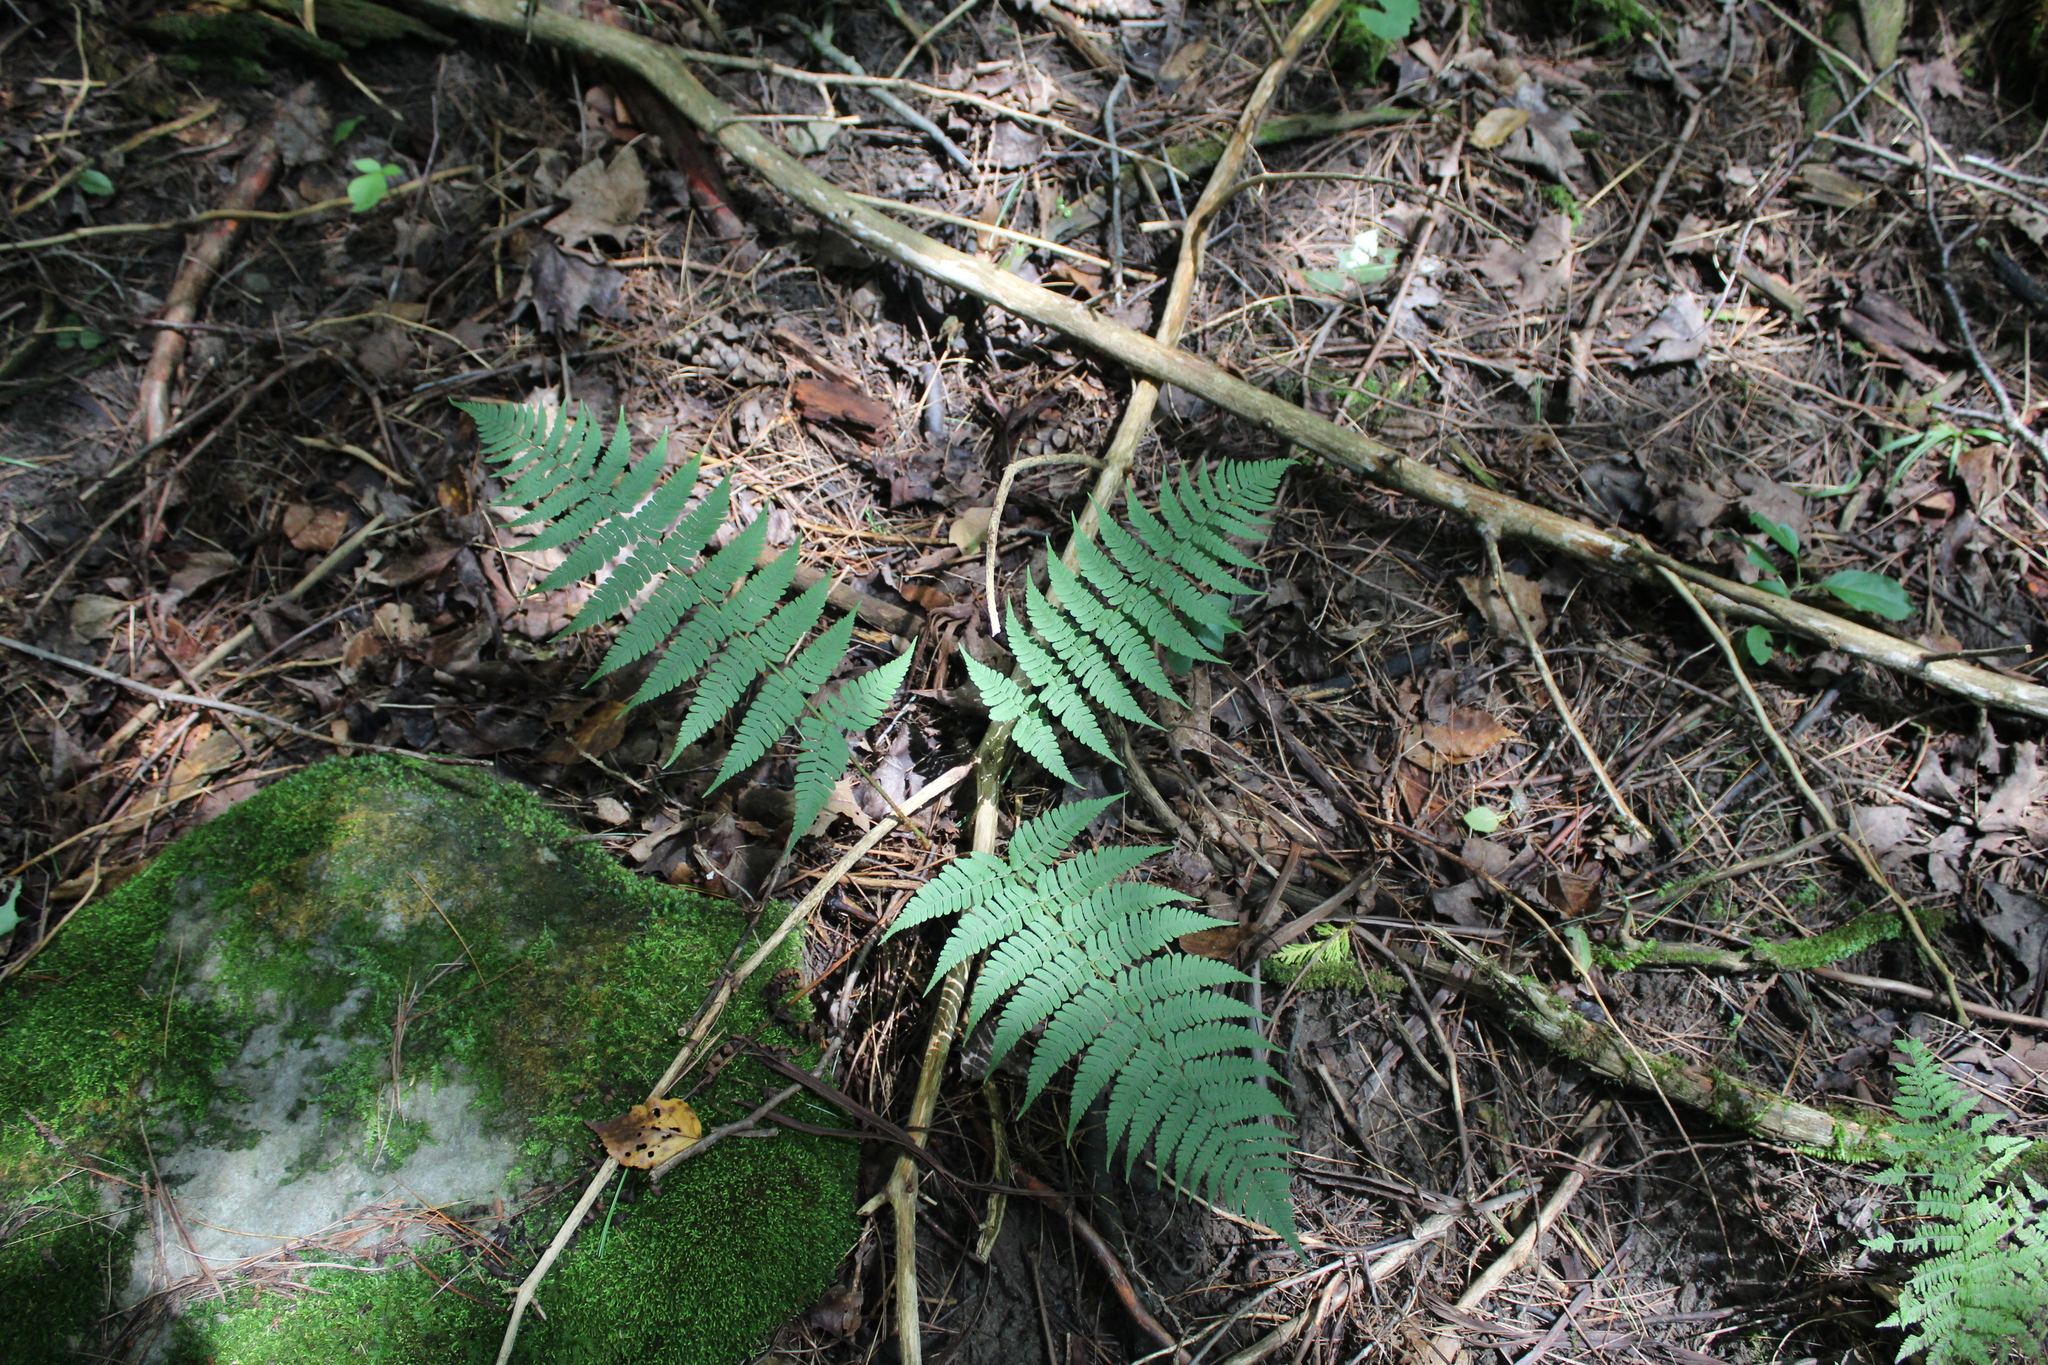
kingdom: Plantae
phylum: Tracheophyta
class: Polypodiopsida
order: Polypodiales
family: Dryopteridaceae
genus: Dryopteris
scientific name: Dryopteris marginalis
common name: Marginal wood fern
